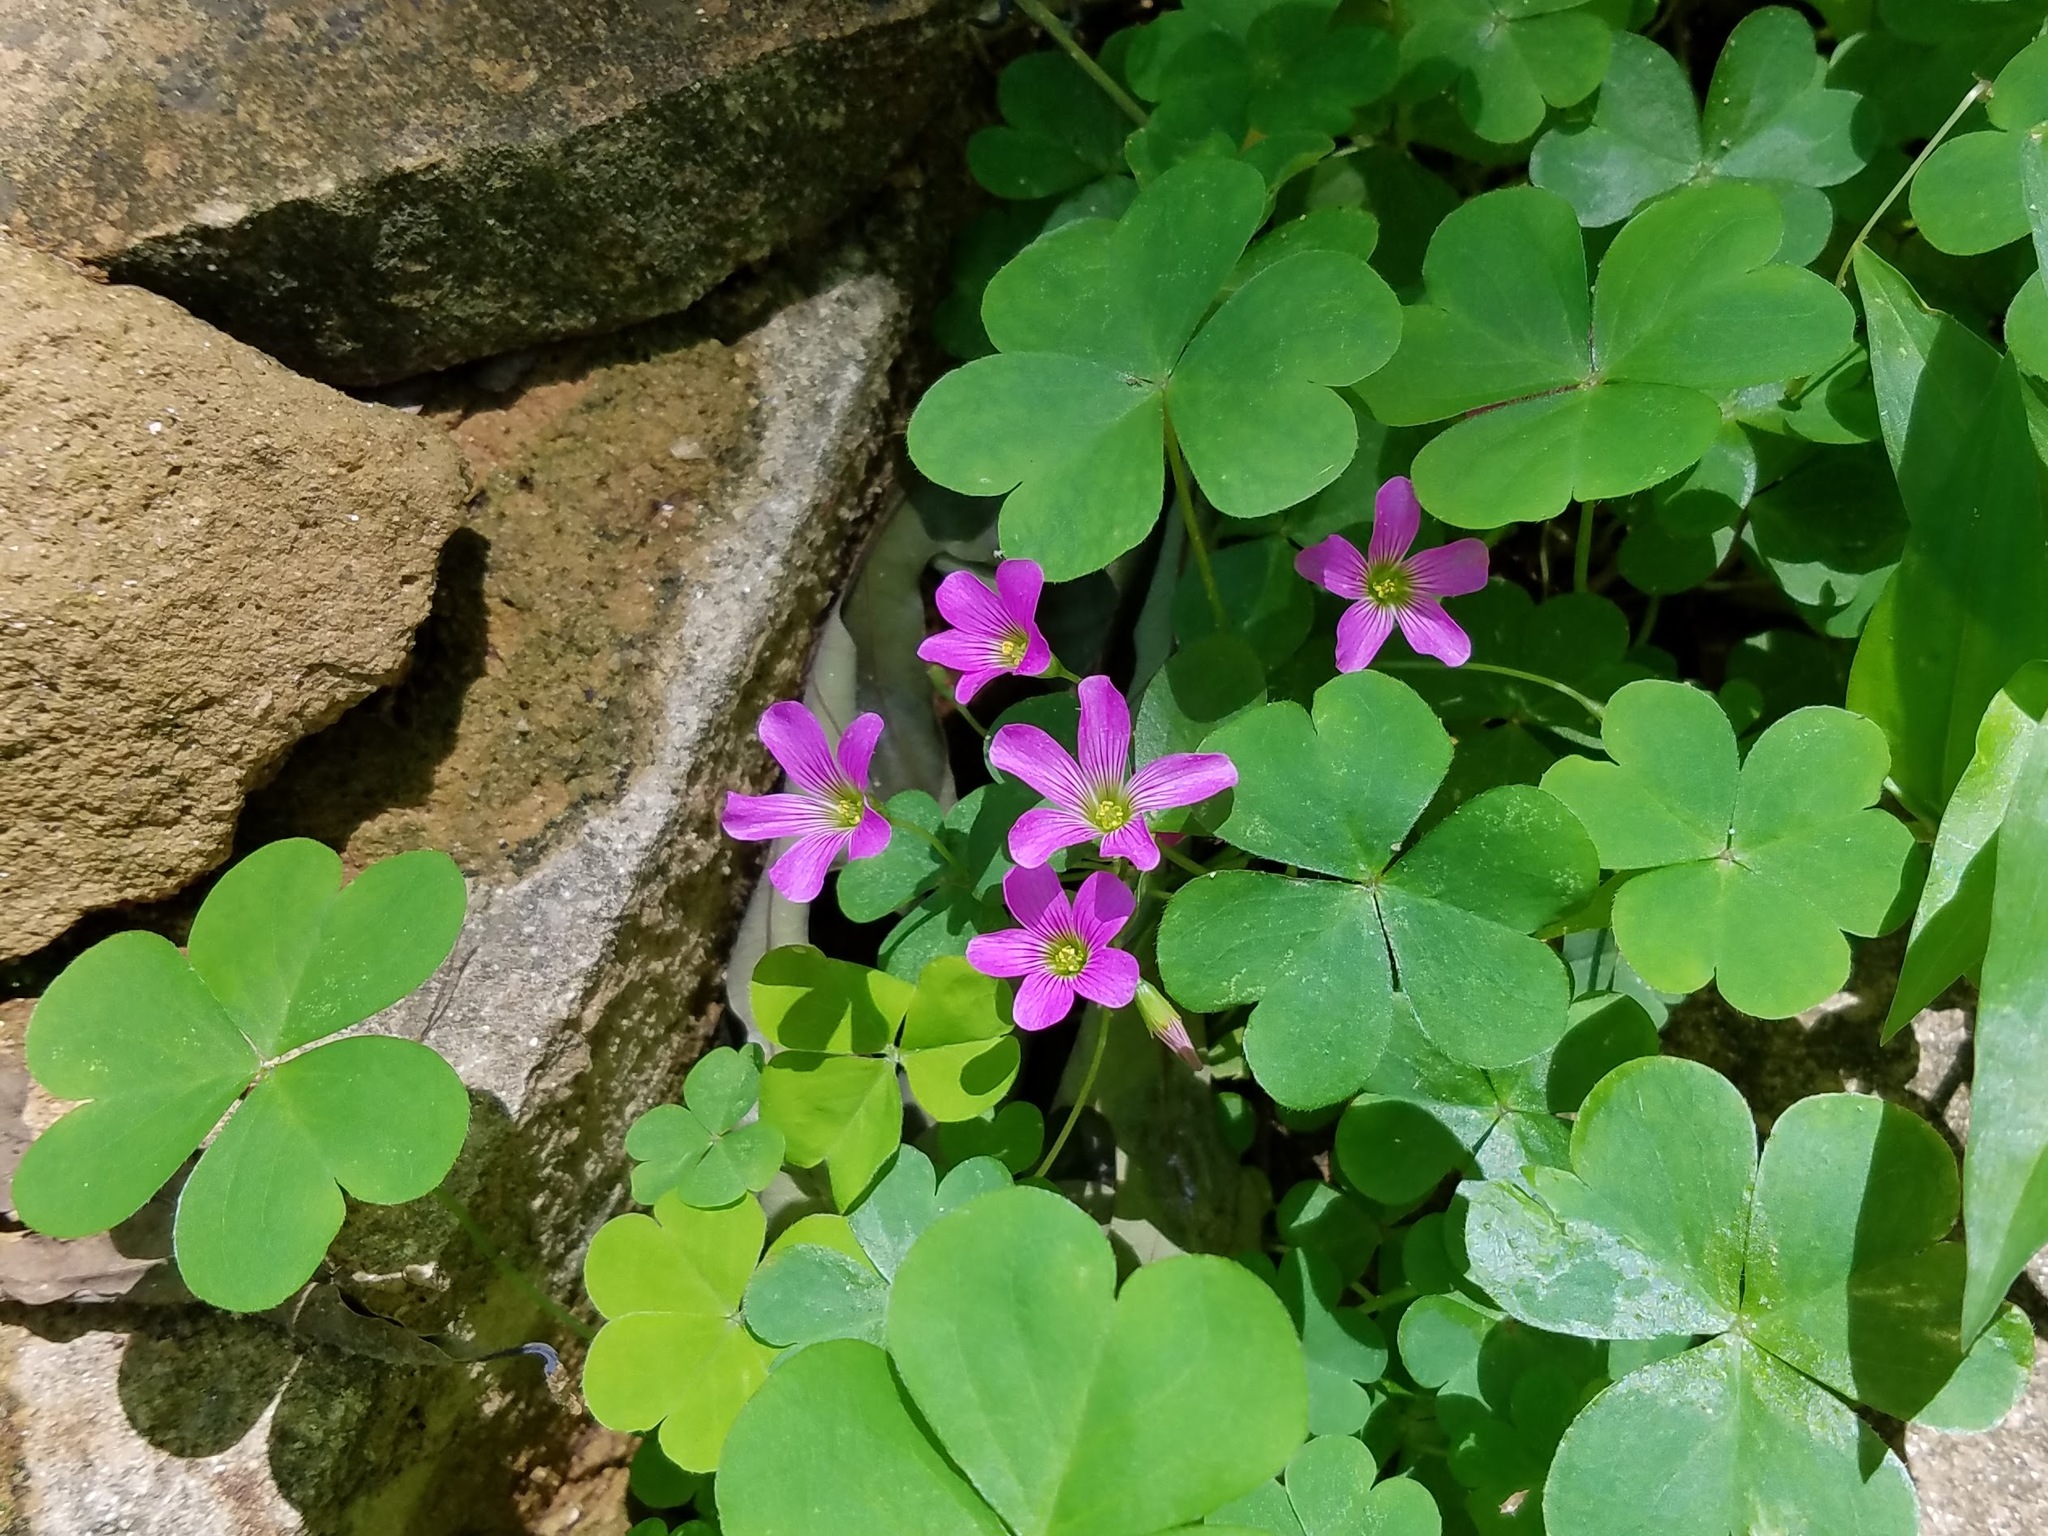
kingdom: Plantae
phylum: Tracheophyta
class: Magnoliopsida
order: Oxalidales
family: Oxalidaceae
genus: Oxalis
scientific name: Oxalis debilis
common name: Large-flowered pink-sorrel
